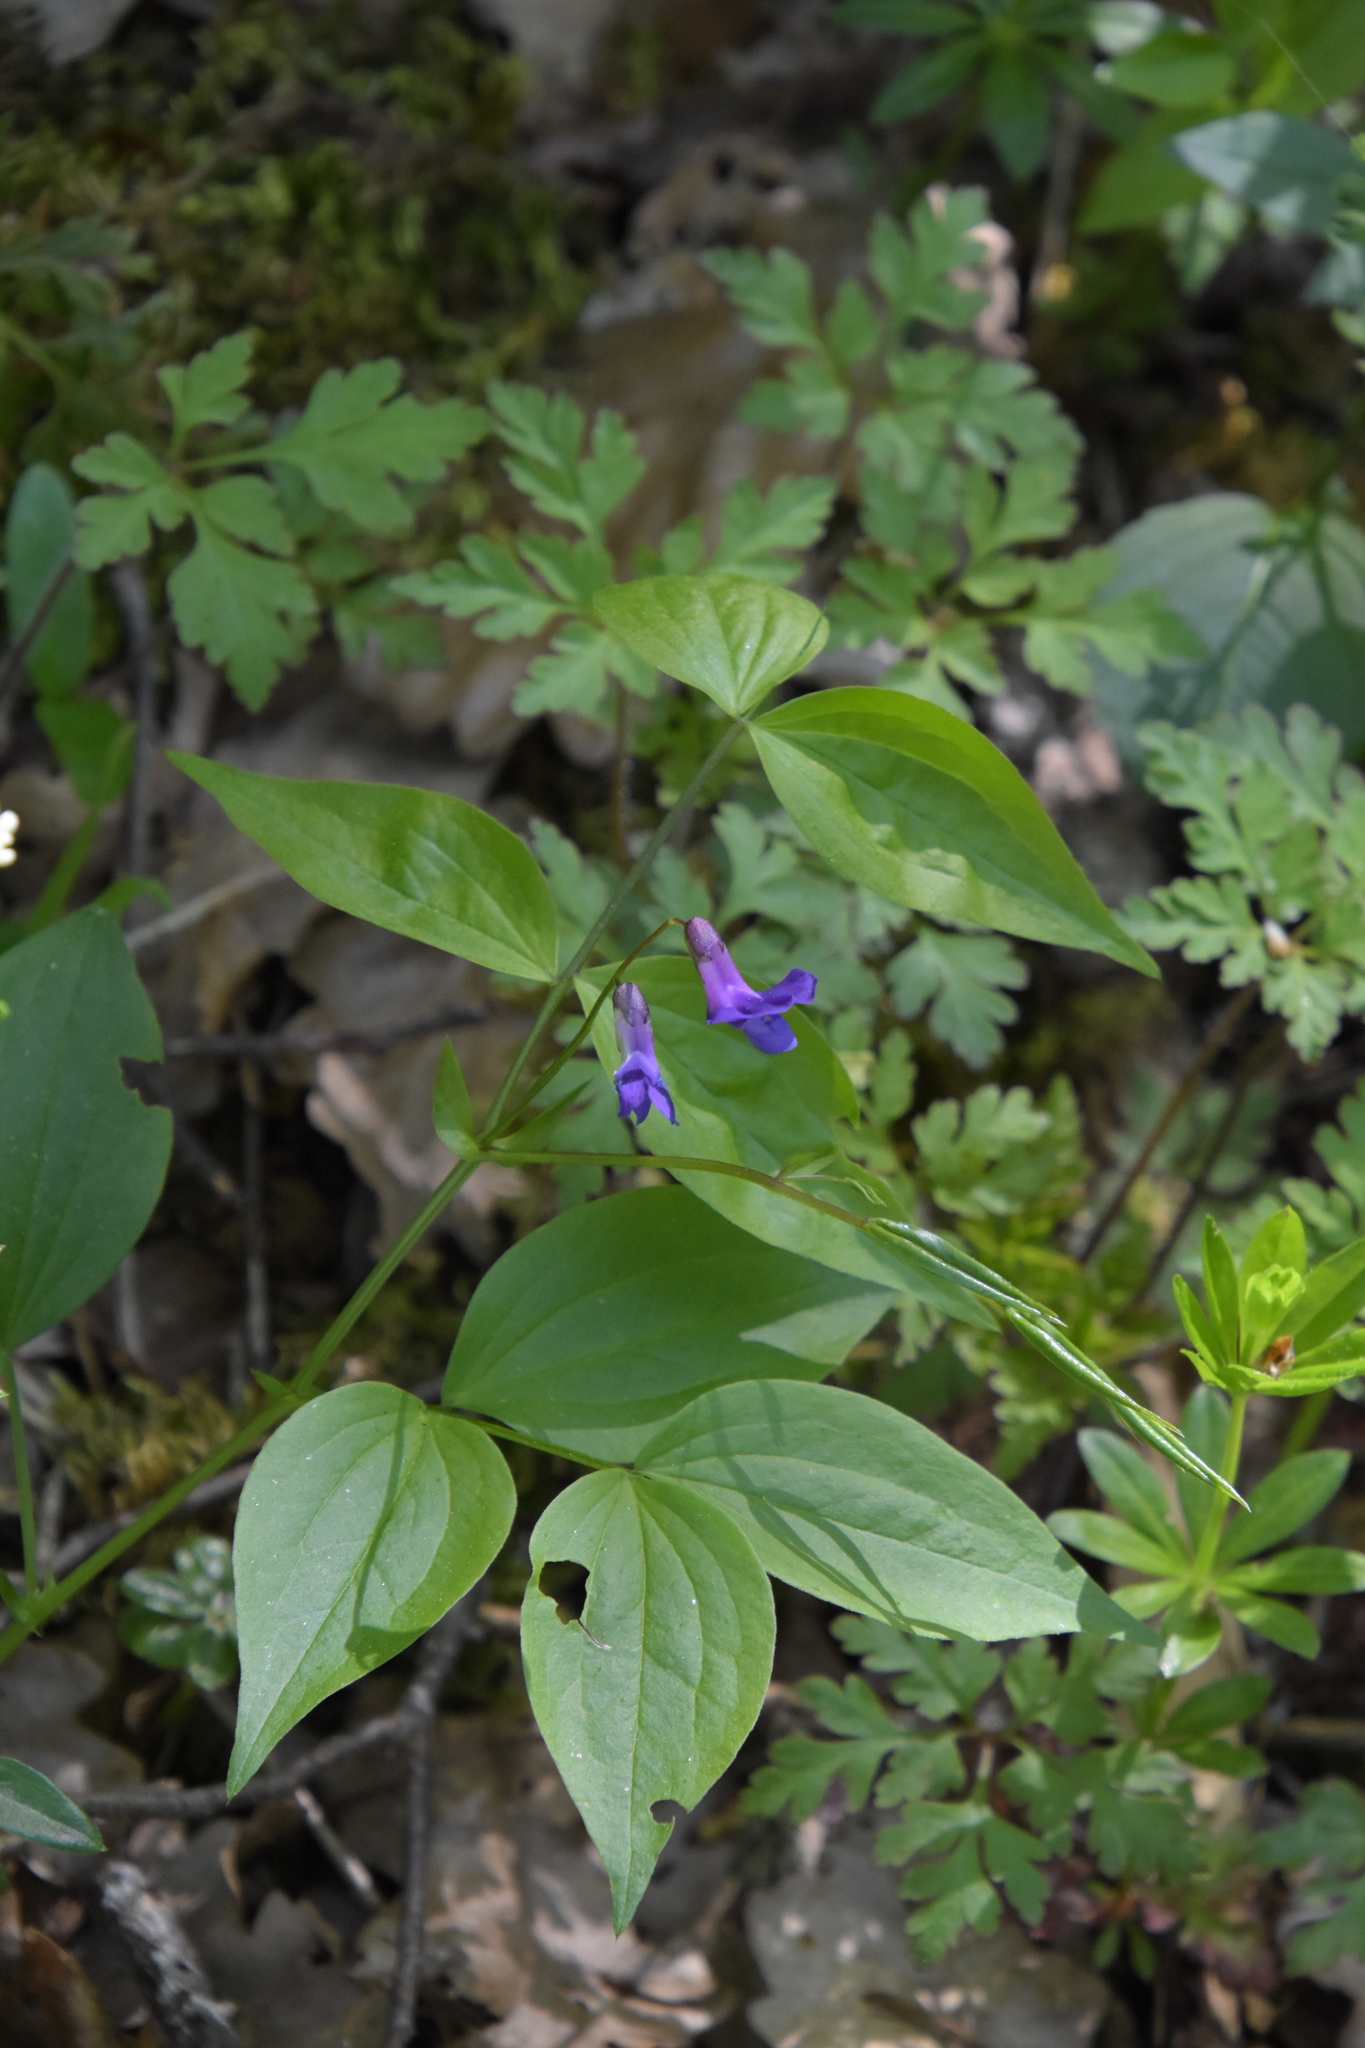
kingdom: Plantae
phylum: Tracheophyta
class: Magnoliopsida
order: Fabales
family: Fabaceae
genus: Lathyrus
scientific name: Lathyrus vernus
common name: Spring pea
